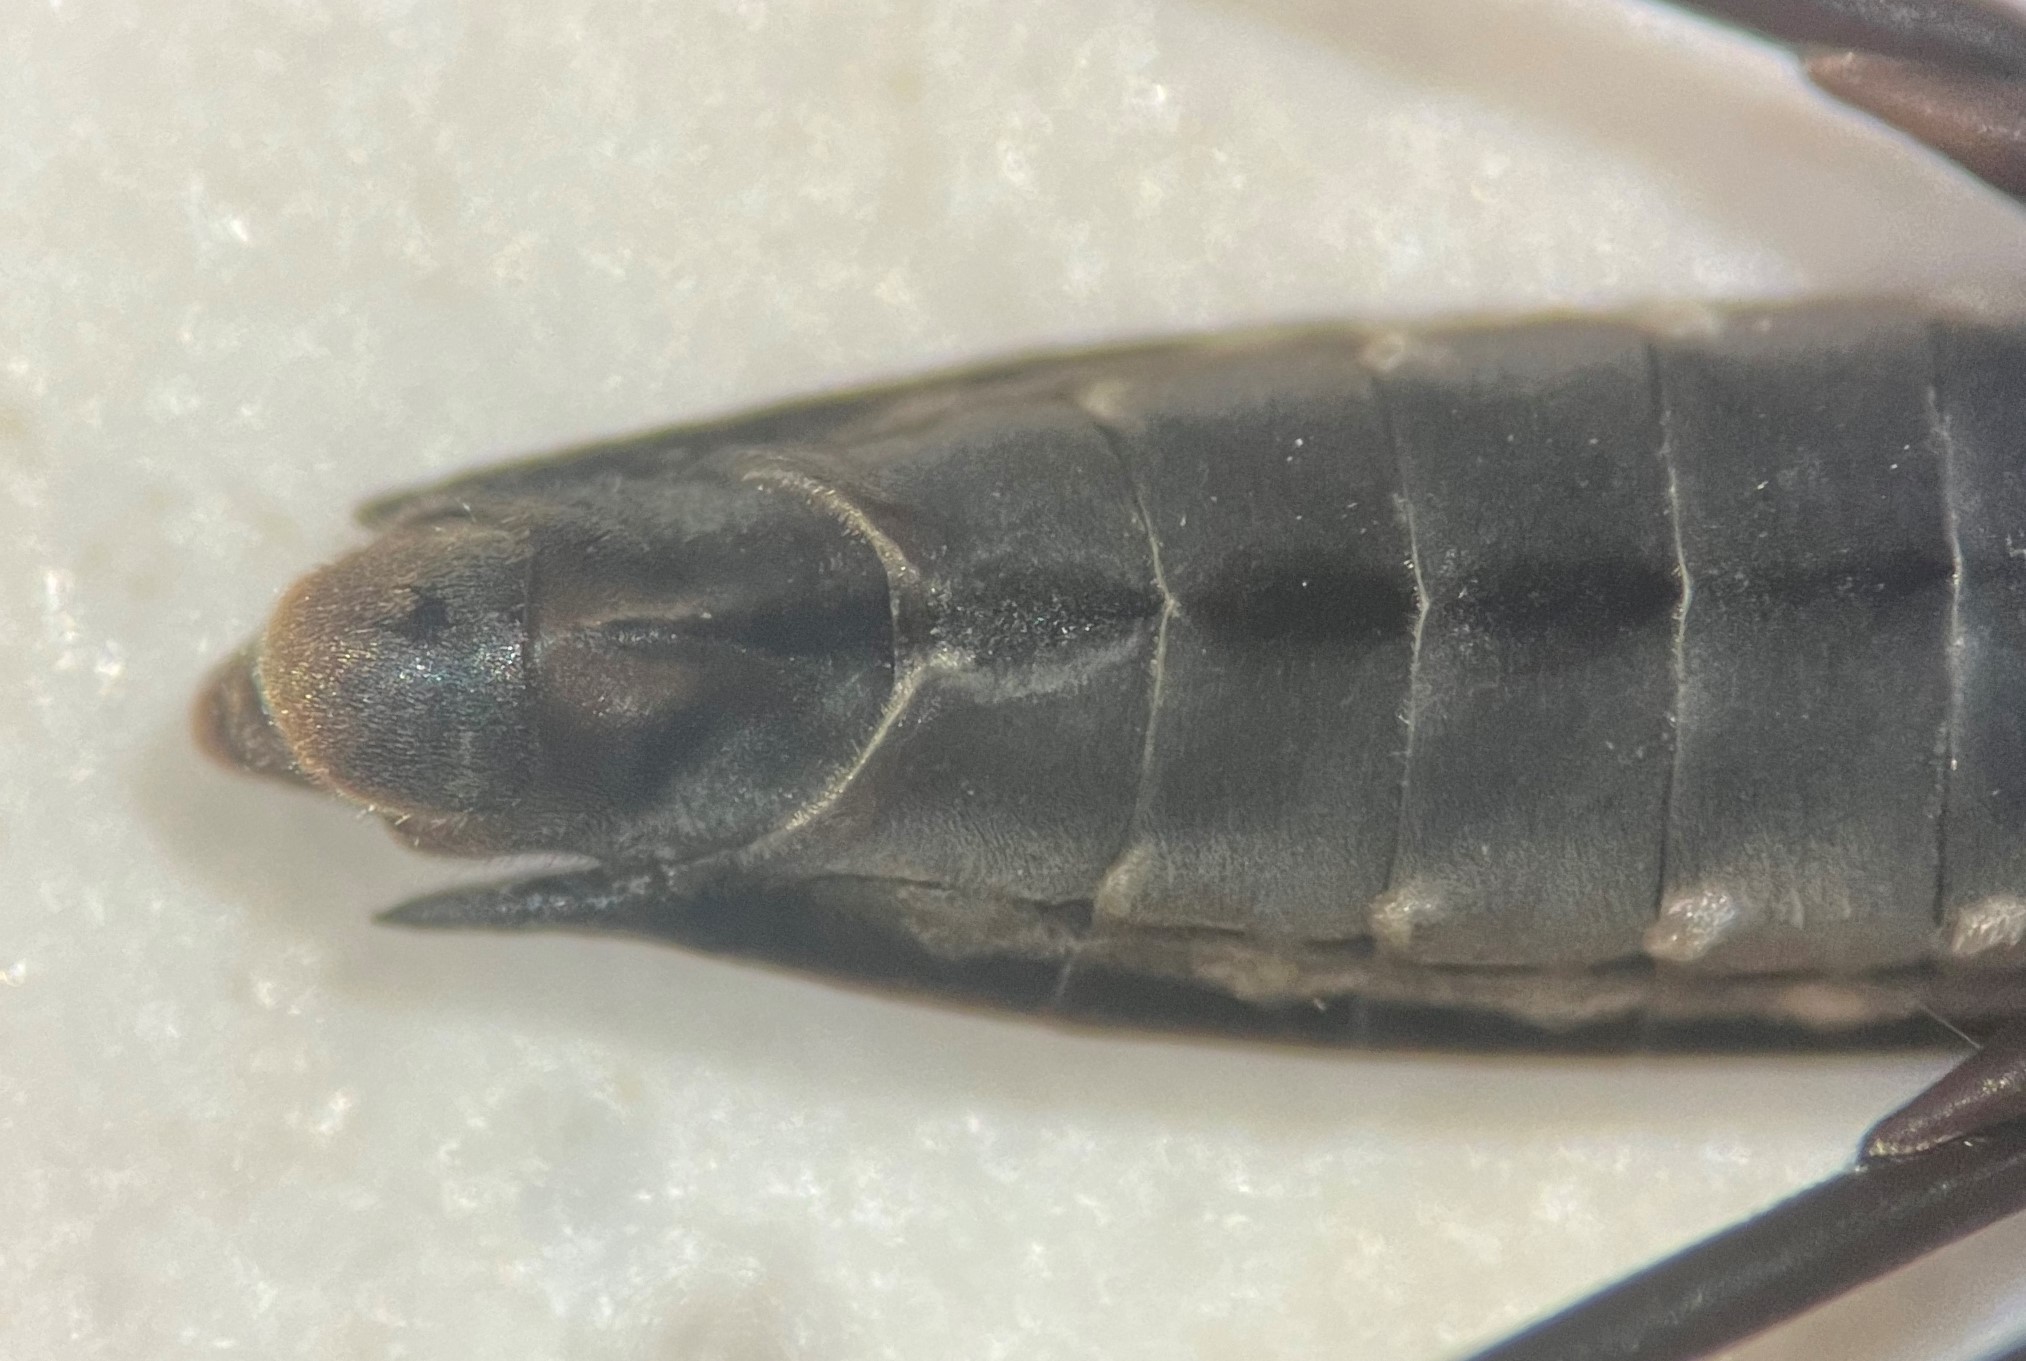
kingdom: Animalia
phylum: Arthropoda
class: Insecta
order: Hemiptera
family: Gerridae
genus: Aquarius
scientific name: Aquarius nebularis
